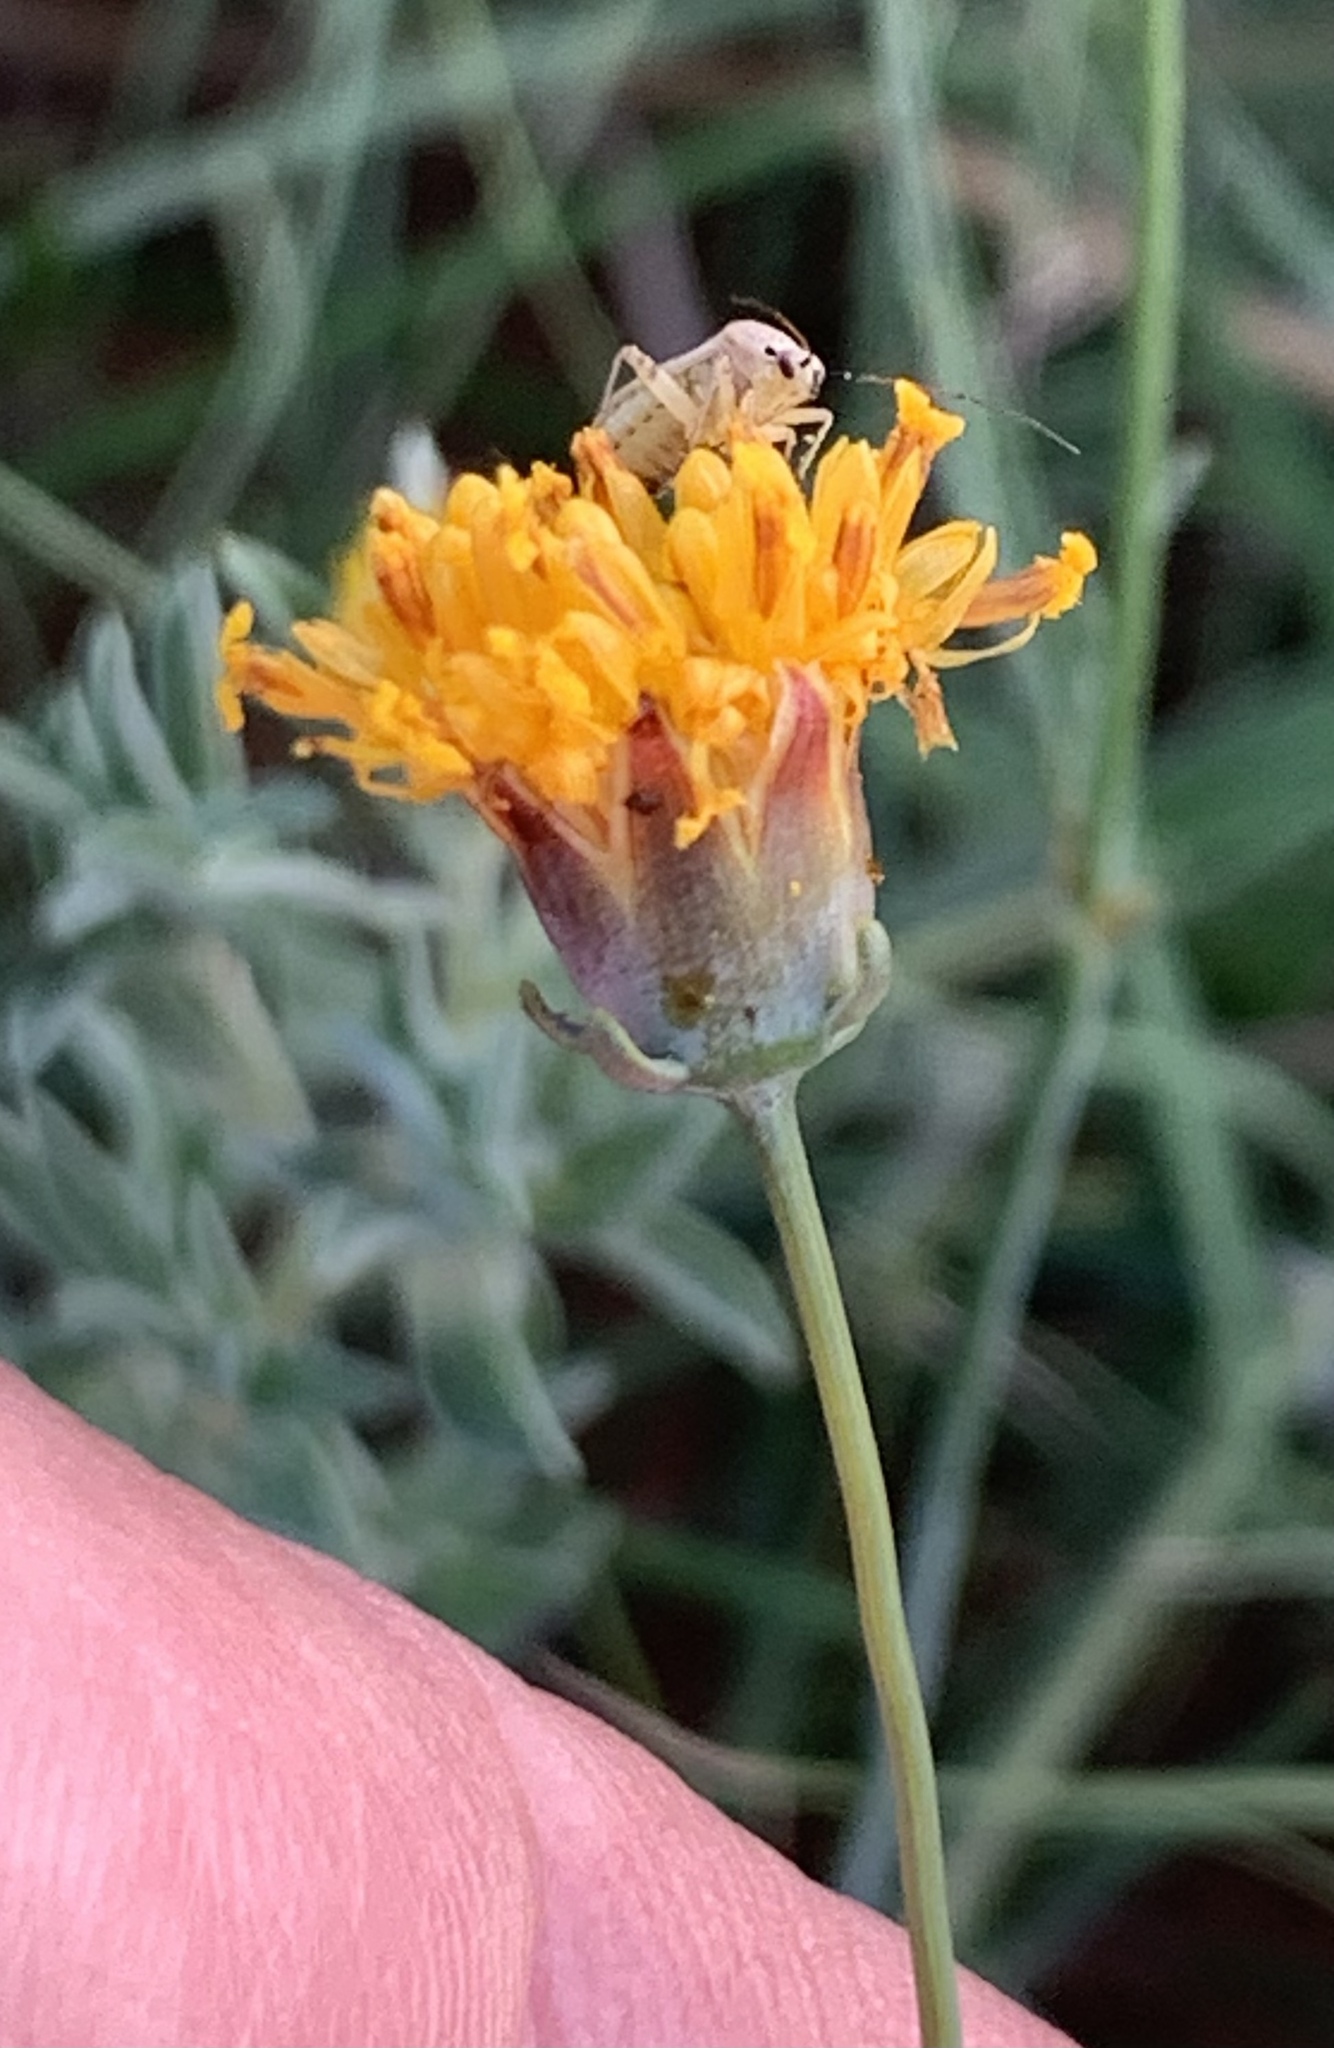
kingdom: Animalia
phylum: Arthropoda
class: Insecta
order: Hemiptera
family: Miridae
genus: Polymerus
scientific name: Polymerus basalis
